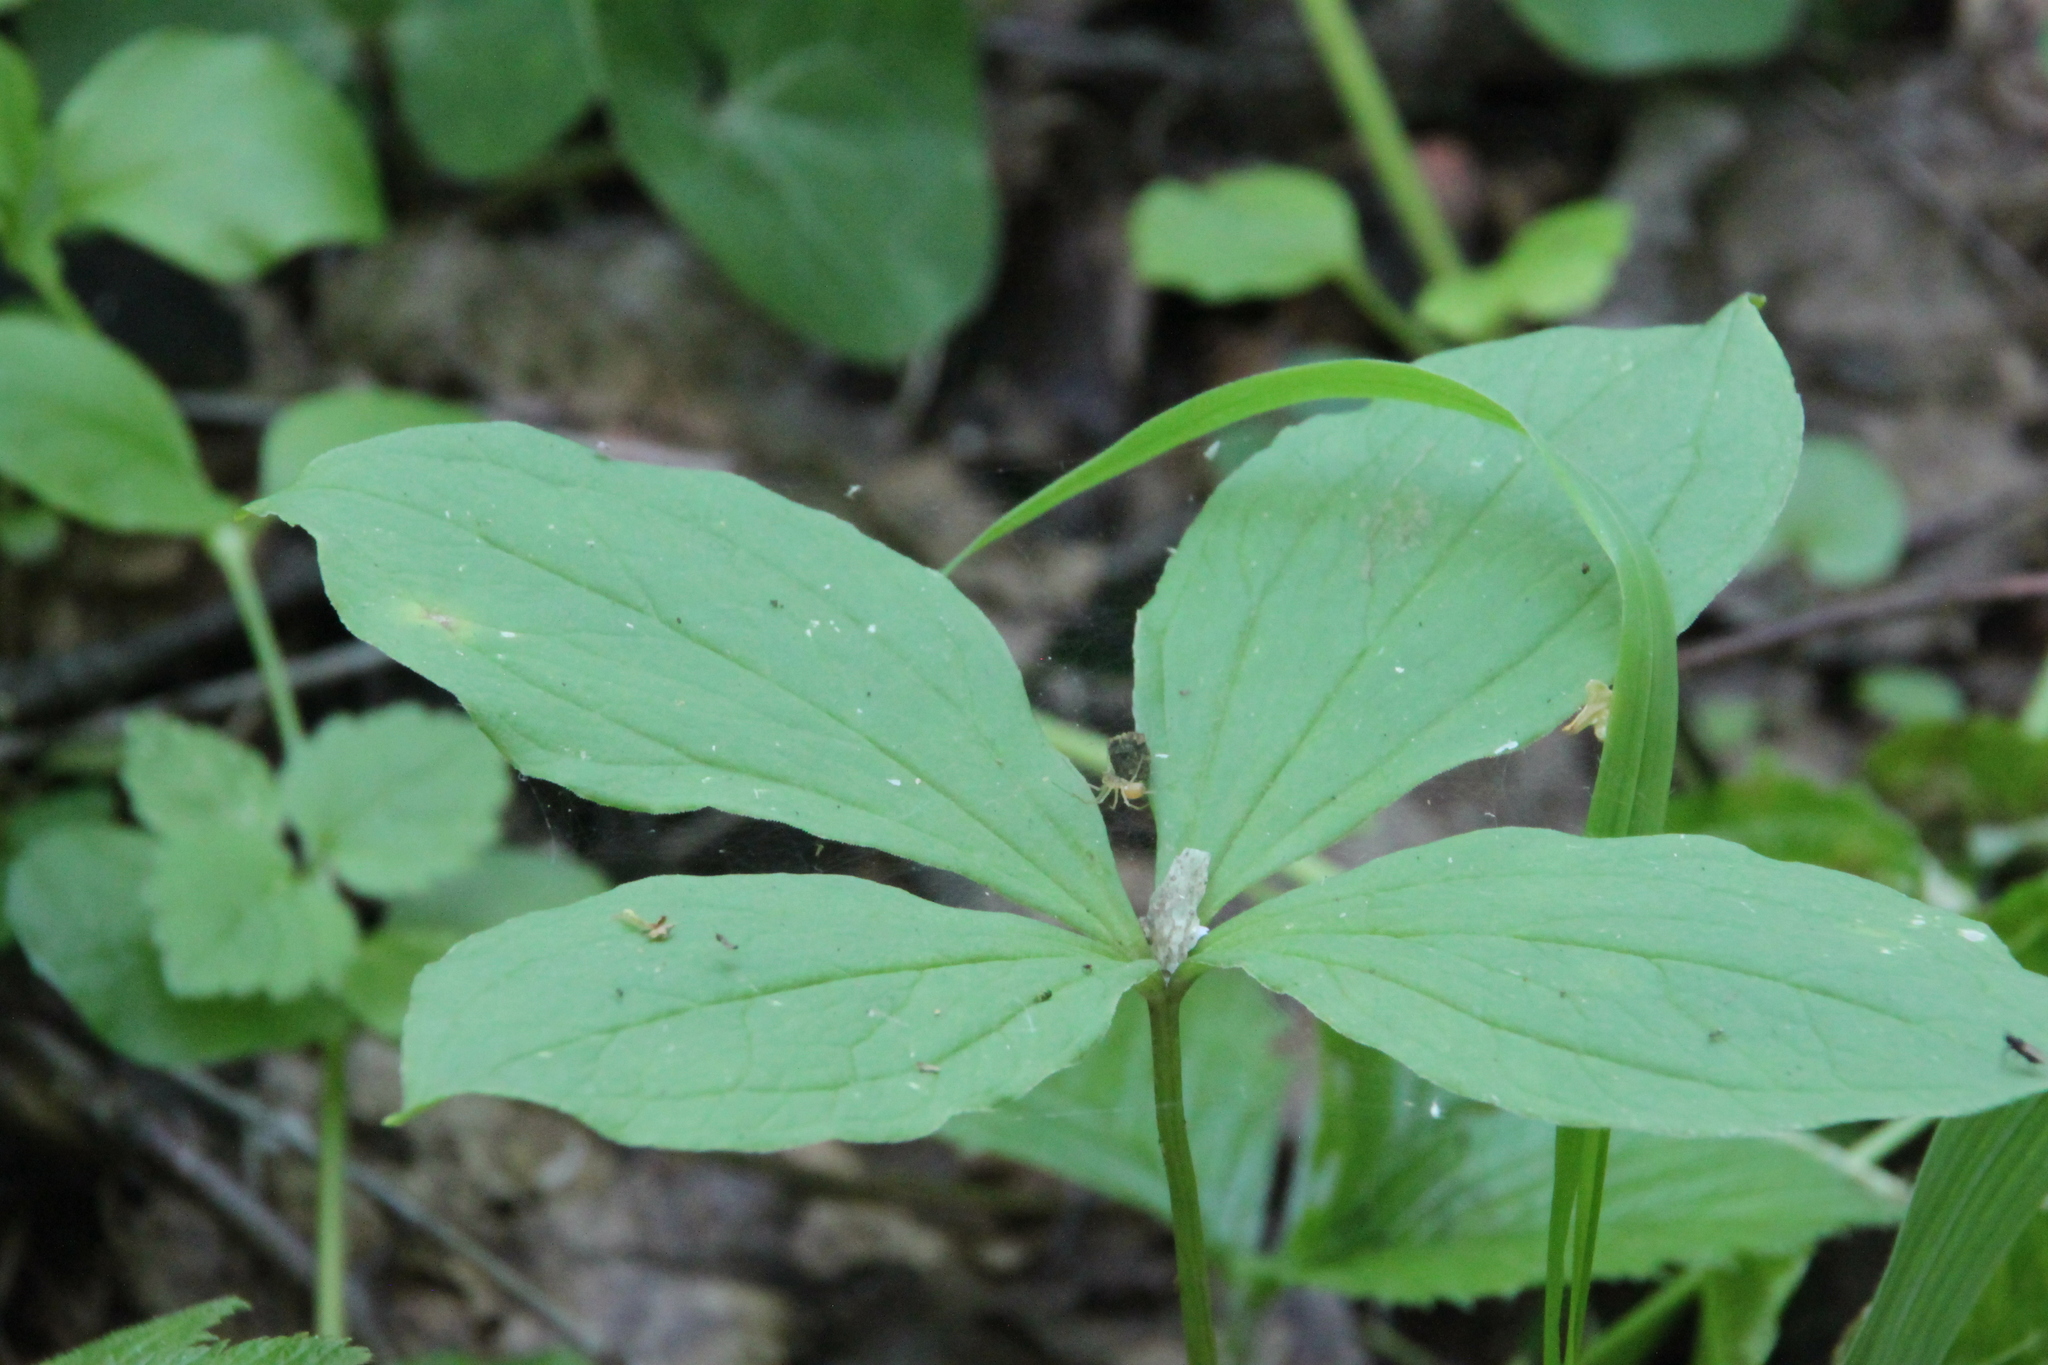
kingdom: Plantae
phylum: Tracheophyta
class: Liliopsida
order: Liliales
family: Melanthiaceae
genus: Paris
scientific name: Paris quadrifolia
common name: Herb-paris
